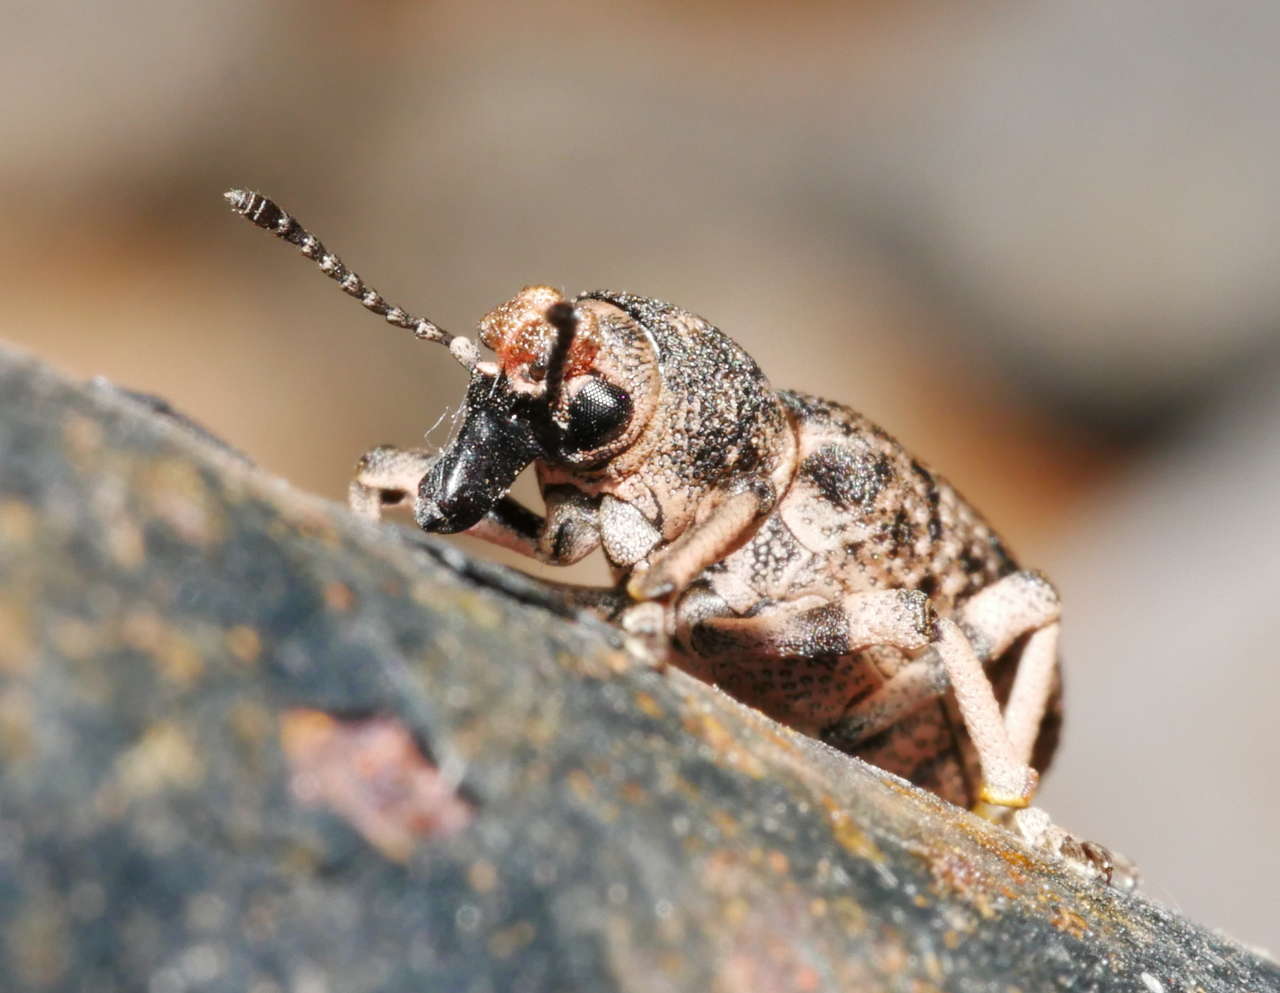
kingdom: Animalia
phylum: Arthropoda
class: Insecta
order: Coleoptera
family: Curculionidae
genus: Rhinaria
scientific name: Rhinaria tragocephala
